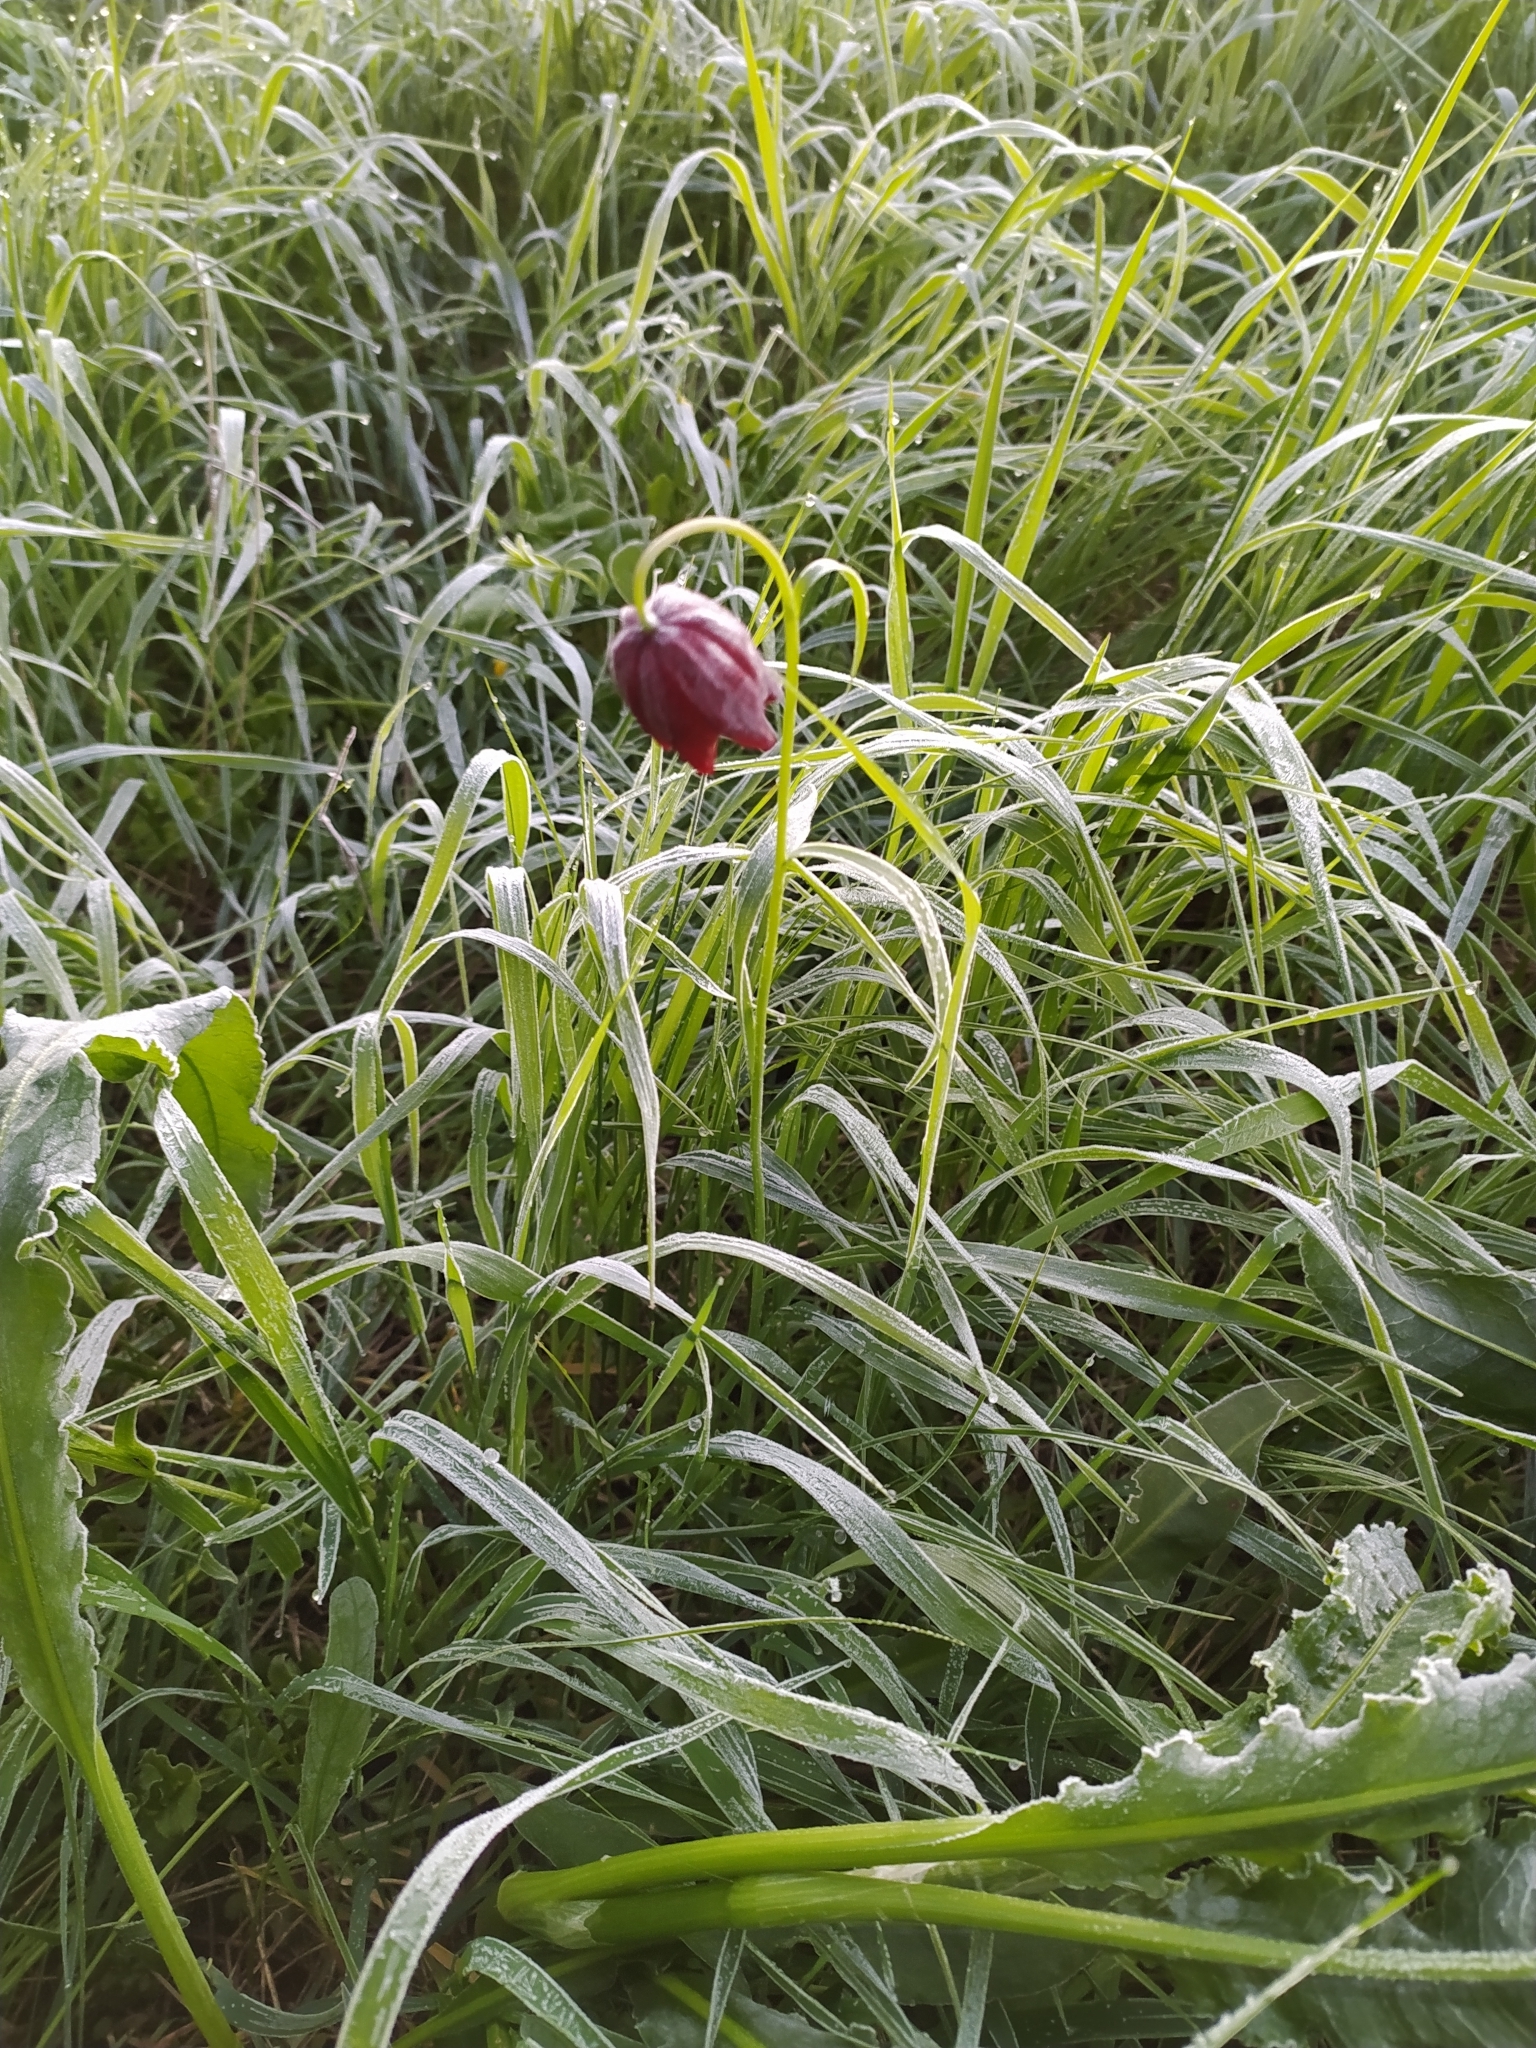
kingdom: Plantae
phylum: Tracheophyta
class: Liliopsida
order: Liliales
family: Liliaceae
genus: Fritillaria
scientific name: Fritillaria meleagroides
